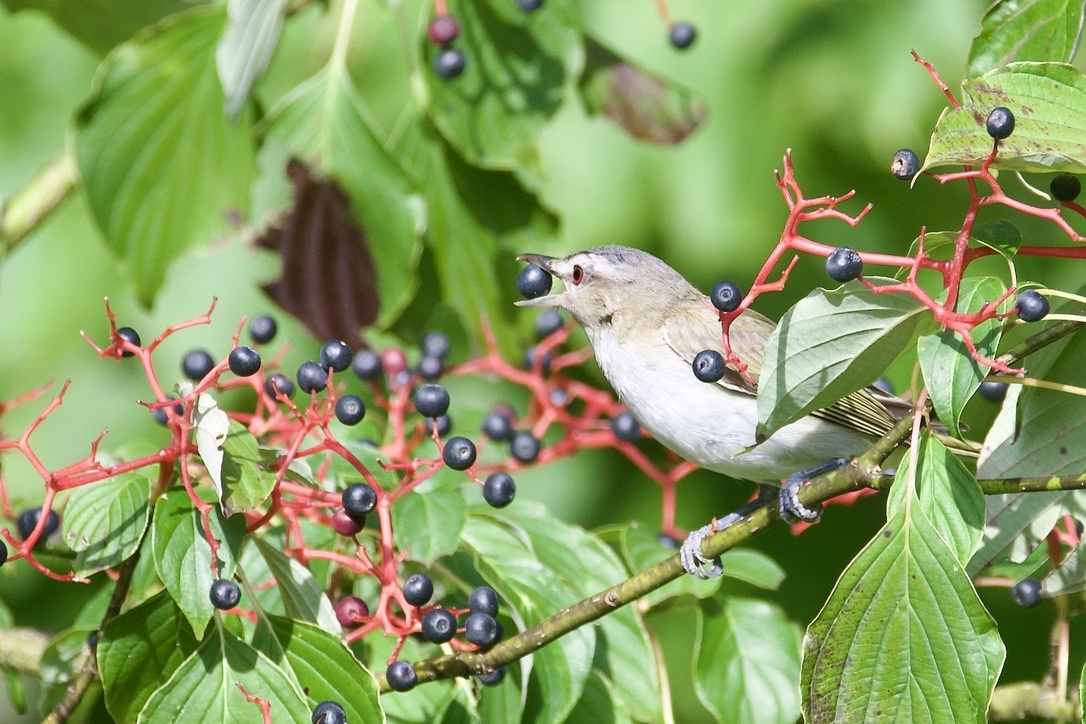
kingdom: Animalia
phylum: Chordata
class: Aves
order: Passeriformes
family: Vireonidae
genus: Vireo
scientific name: Vireo olivaceus
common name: Red-eyed vireo
